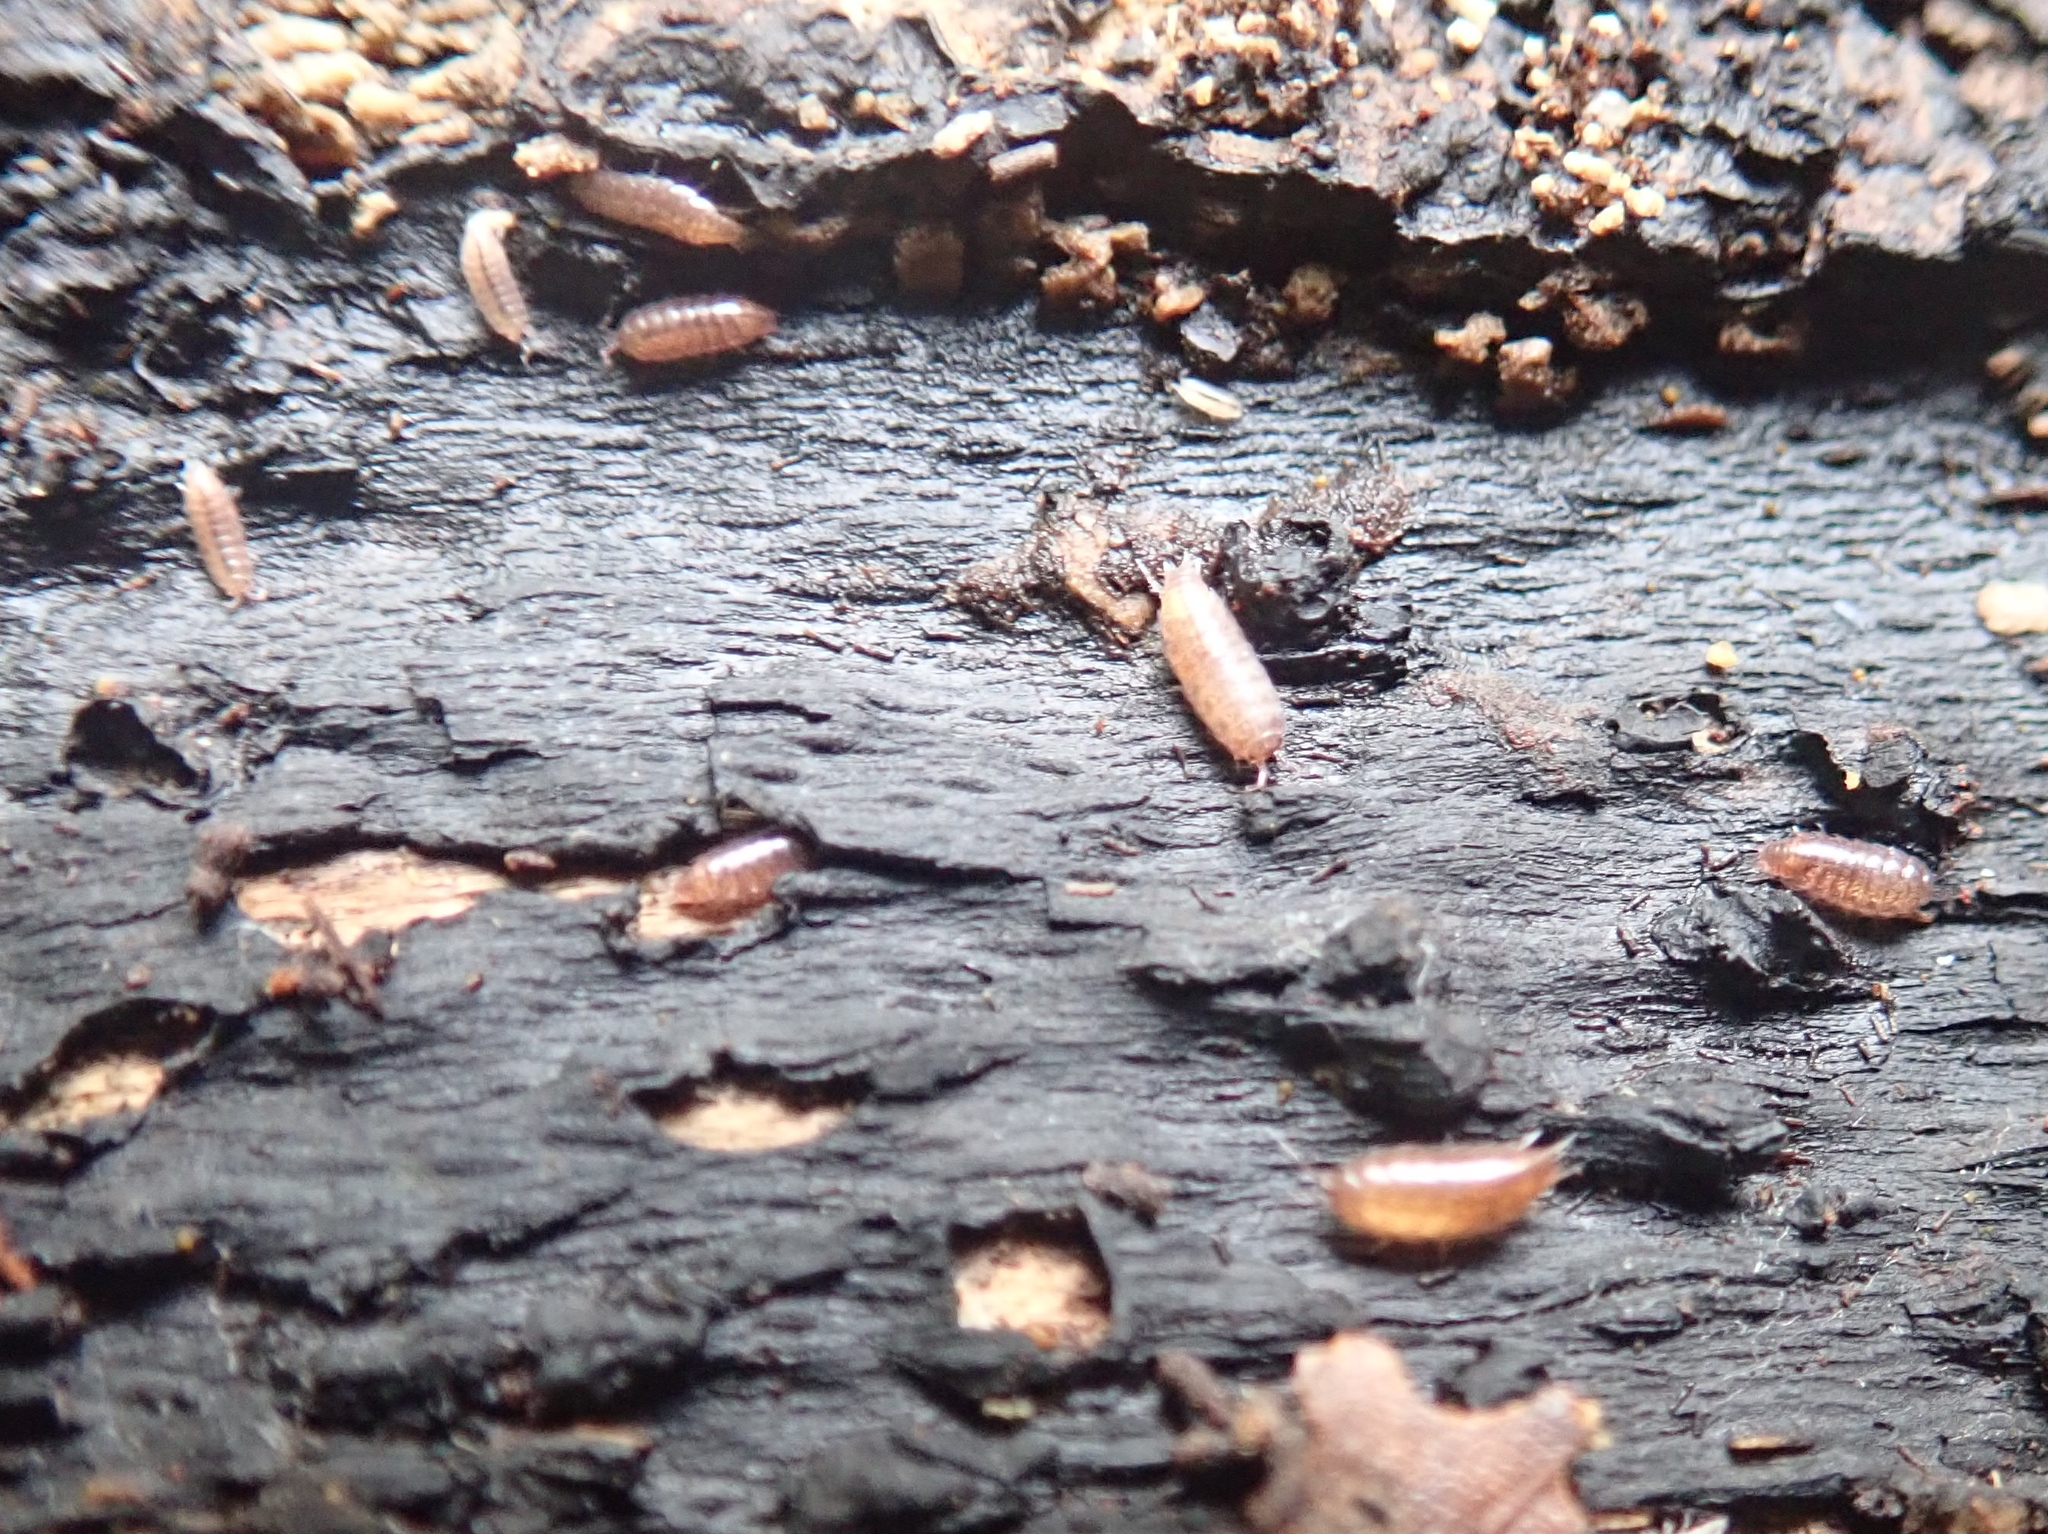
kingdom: Animalia
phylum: Arthropoda
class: Malacostraca
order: Isopoda
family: Trichoniscidae
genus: Trichoniscus
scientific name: Trichoniscus pygmaeus
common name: Isopod
